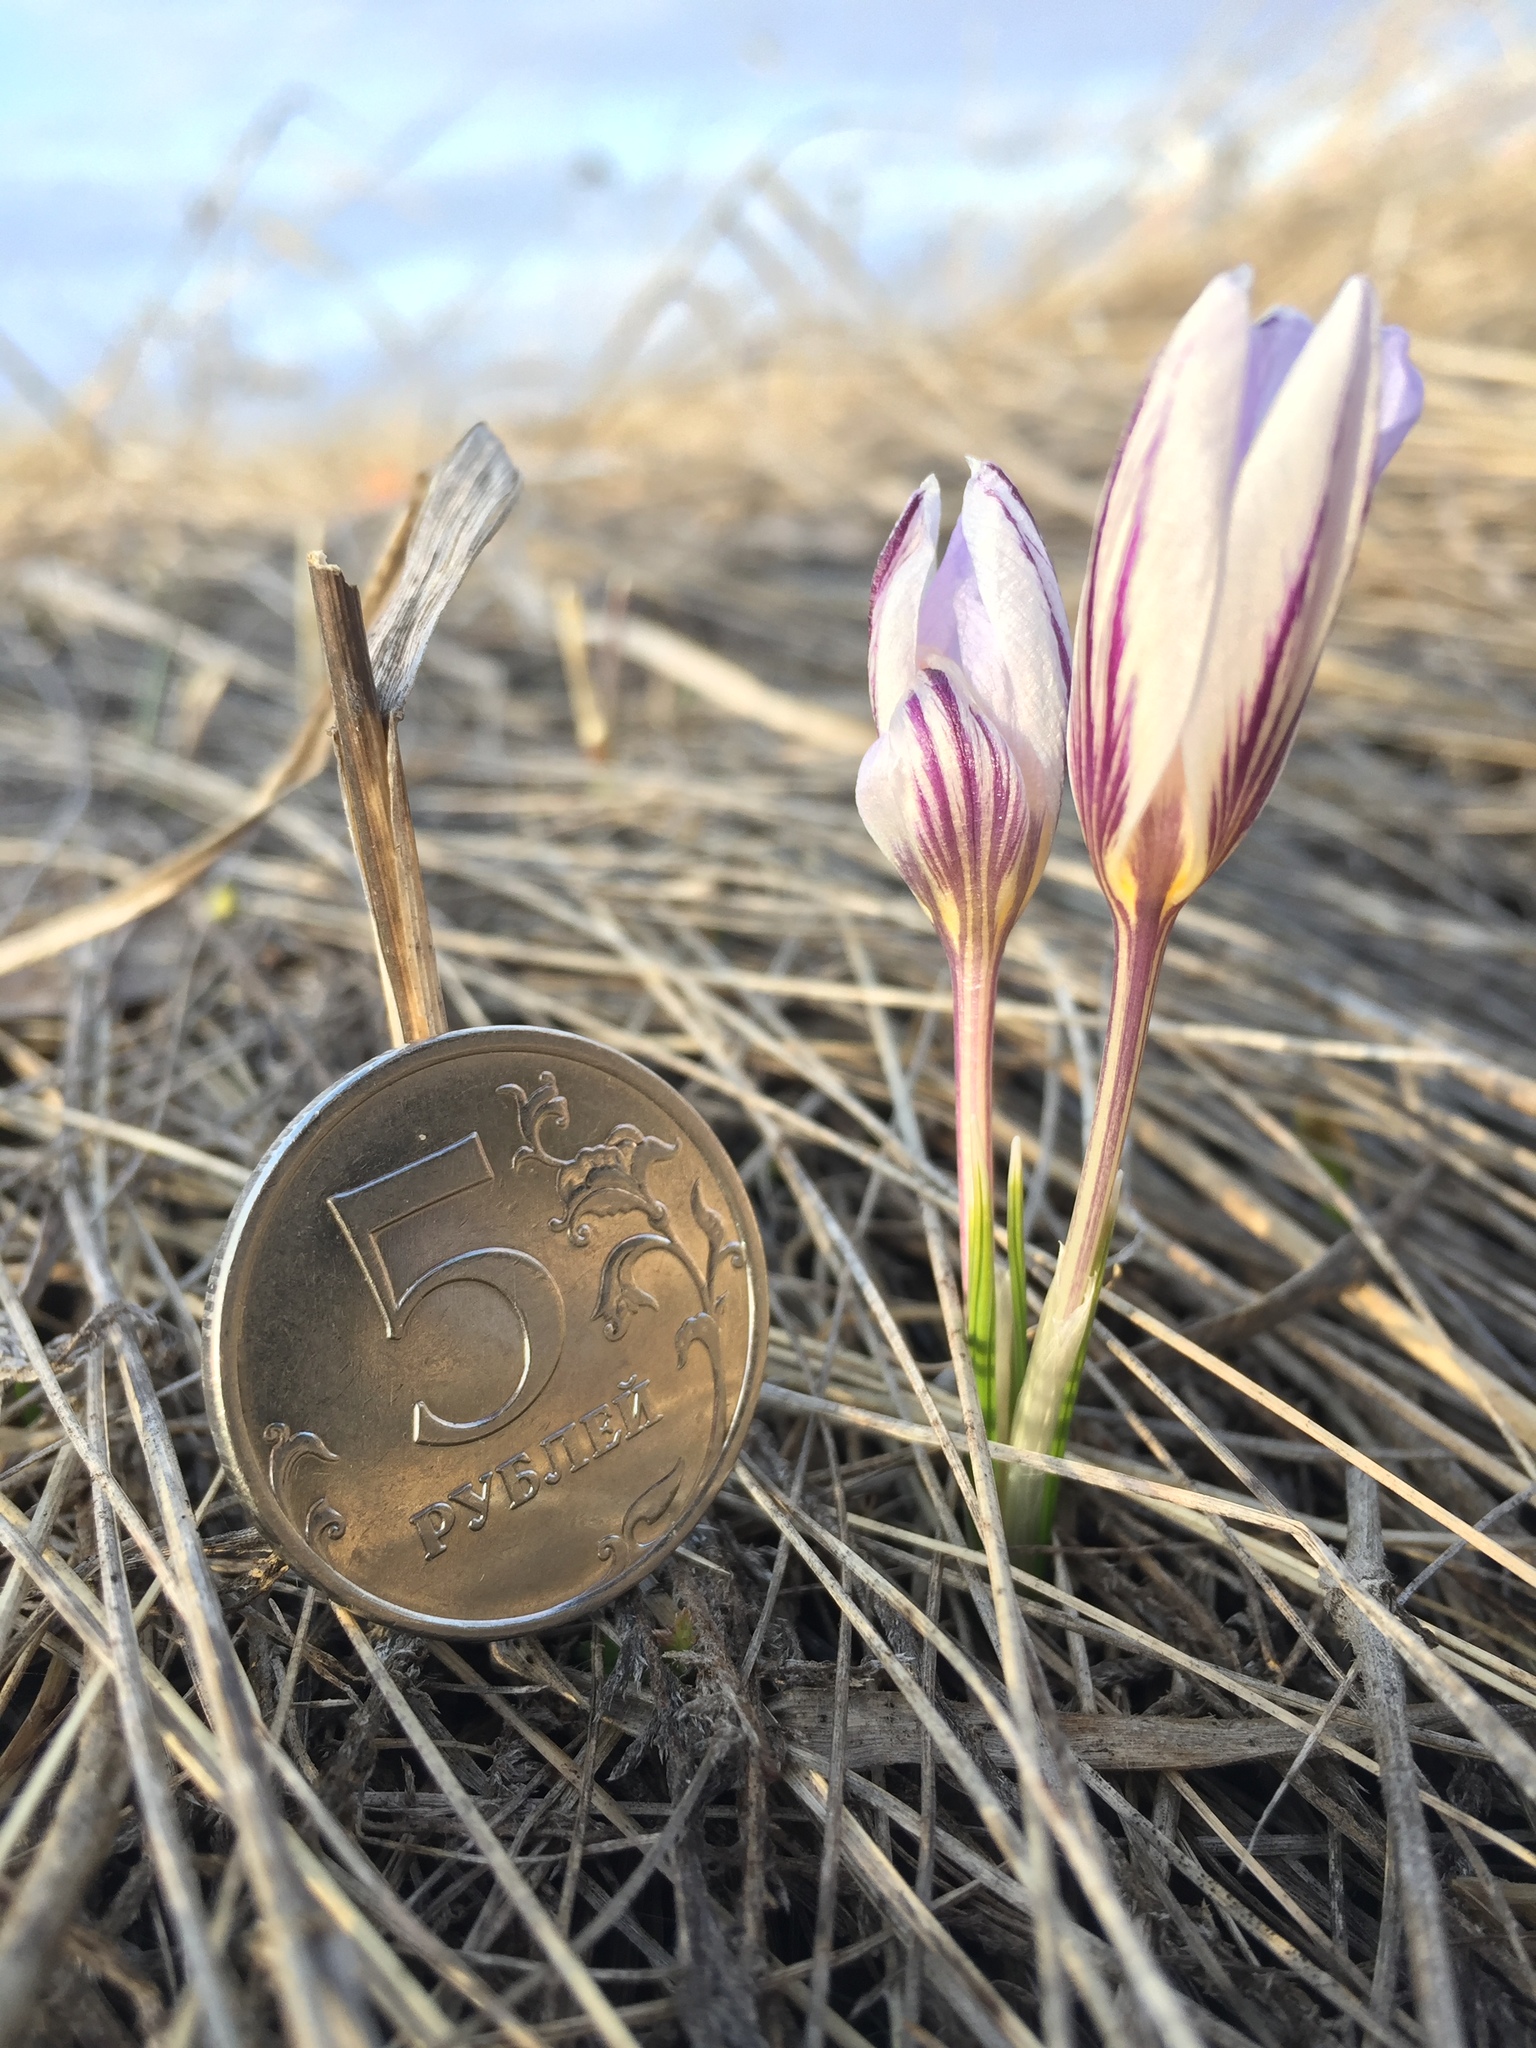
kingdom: Plantae
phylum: Tracheophyta
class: Liliopsida
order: Asparagales
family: Iridaceae
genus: Crocus
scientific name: Crocus reticulatus
